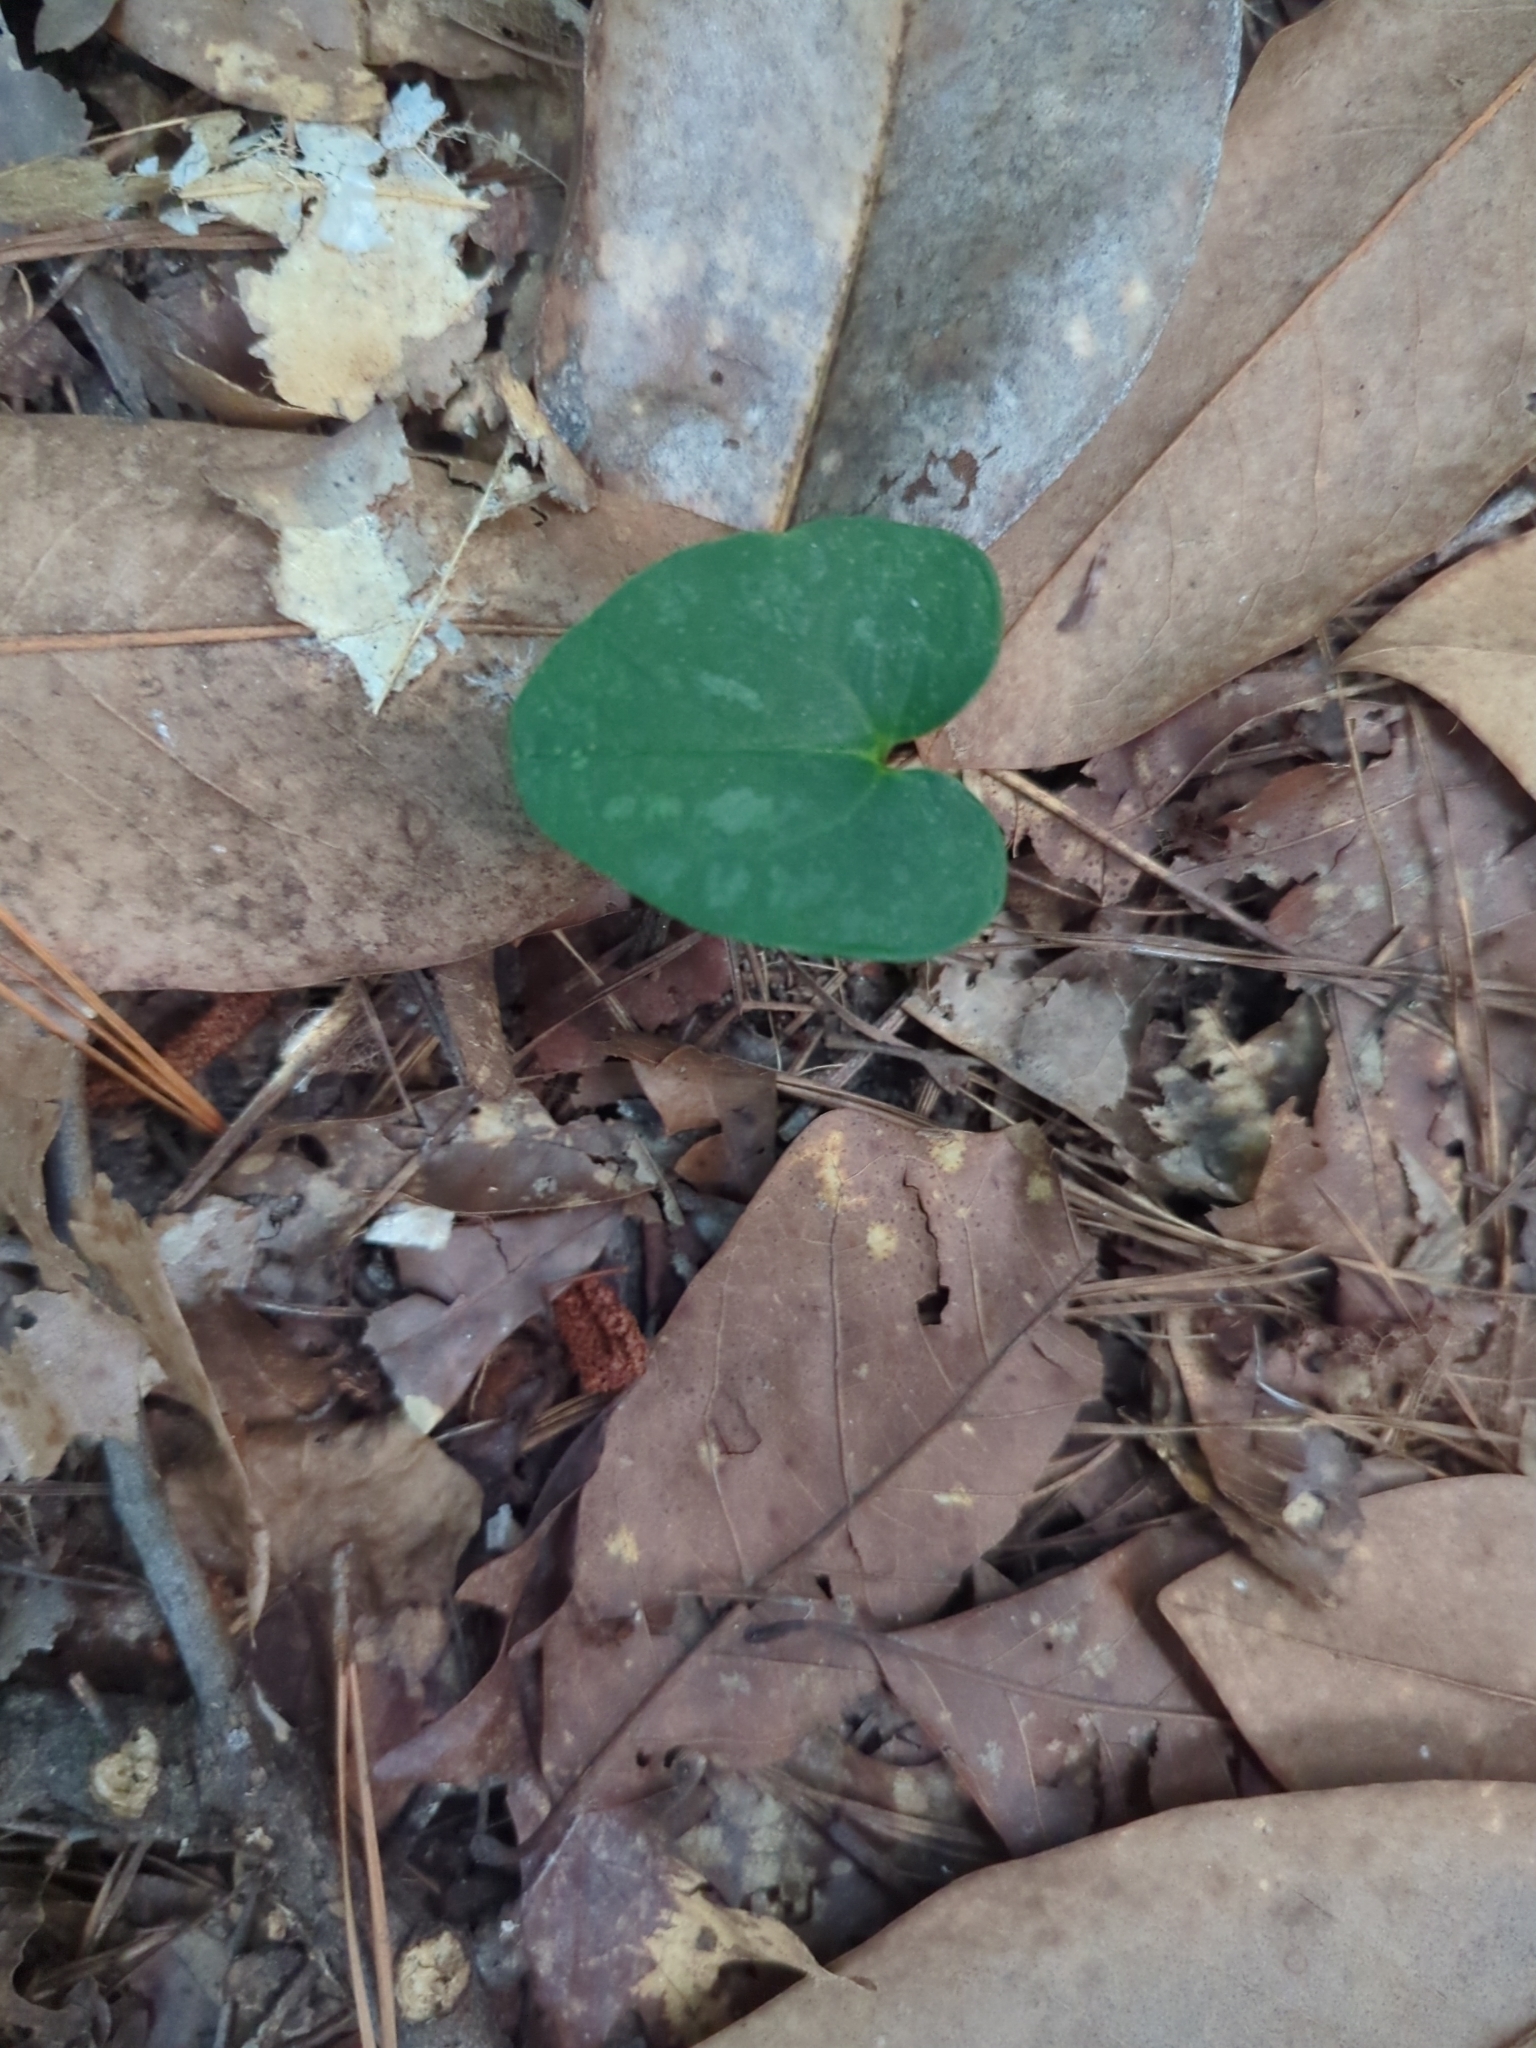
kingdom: Plantae
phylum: Tracheophyta
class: Magnoliopsida
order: Piperales
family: Aristolochiaceae
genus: Hexastylis
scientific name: Hexastylis arifolia
